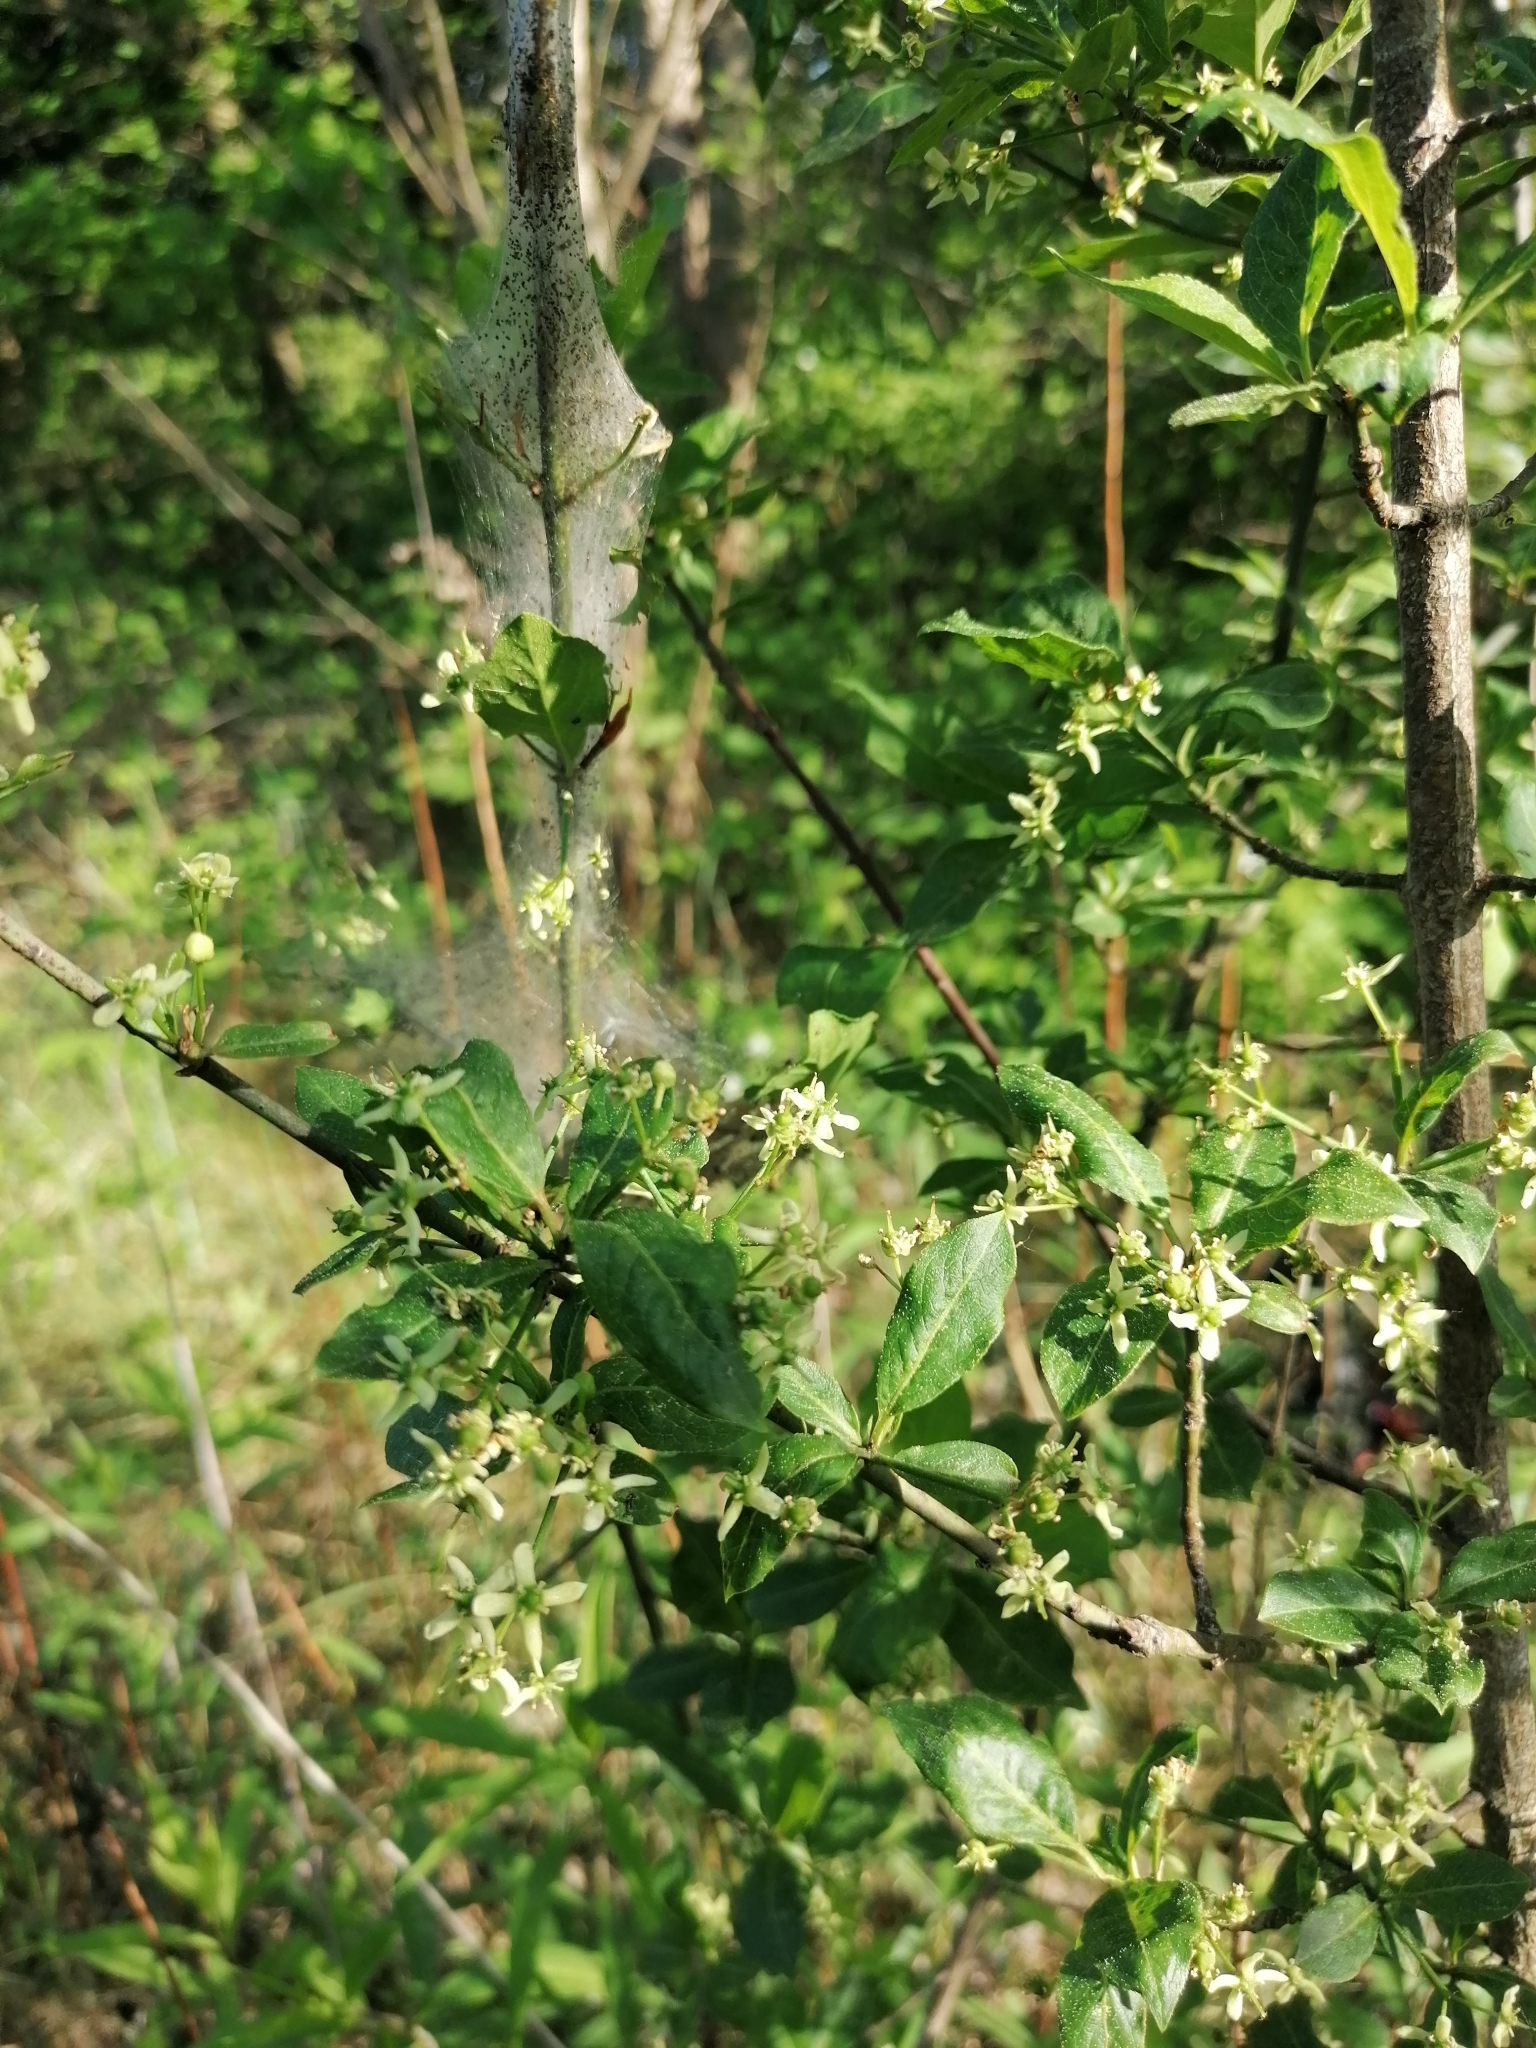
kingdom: Plantae
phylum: Tracheophyta
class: Magnoliopsida
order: Celastrales
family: Celastraceae
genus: Euonymus
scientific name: Euonymus europaeus
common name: Spindle
